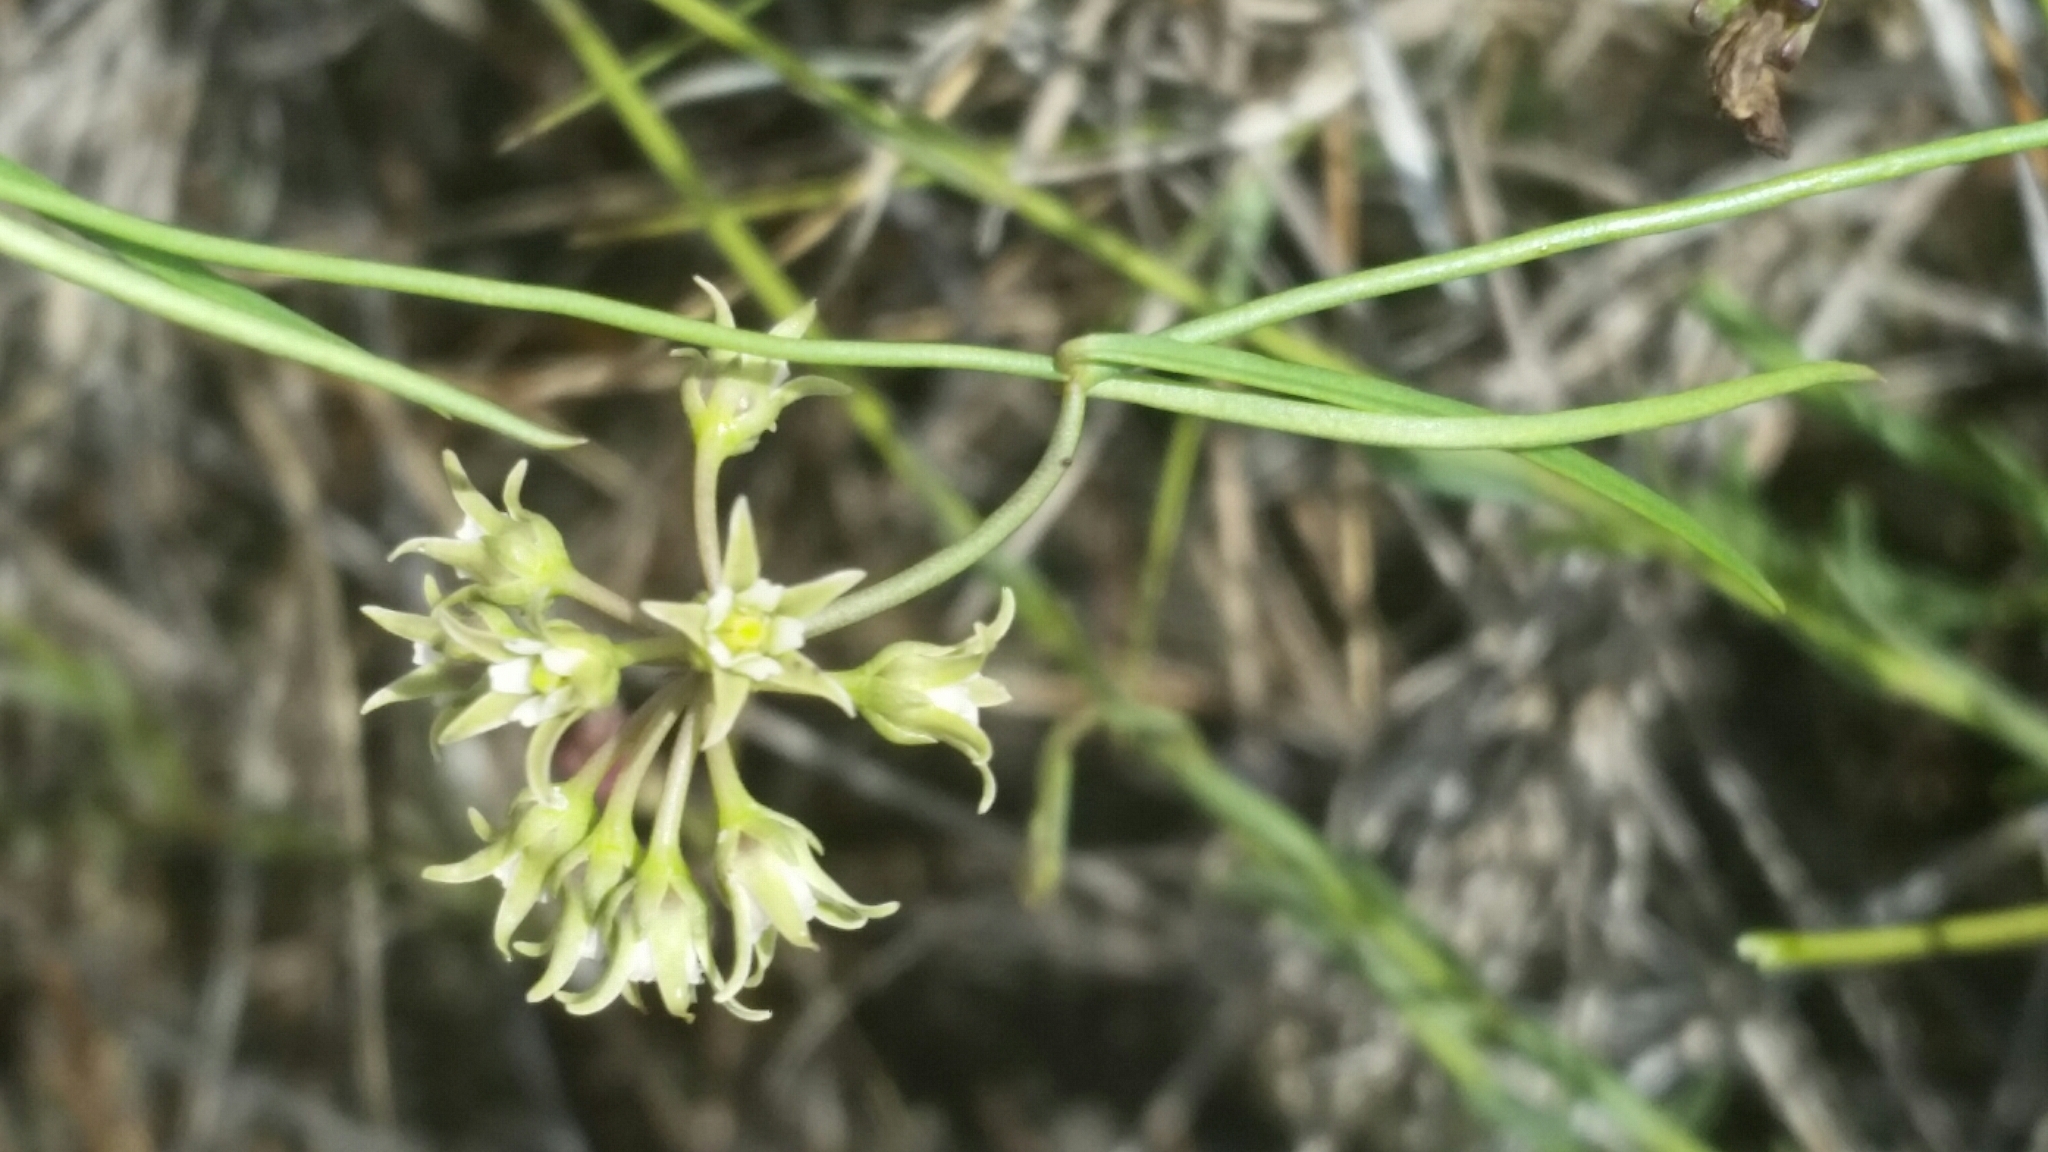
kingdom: Plantae
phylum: Tracheophyta
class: Magnoliopsida
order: Gentianales
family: Apocynaceae
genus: Pattalias
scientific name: Pattalias
